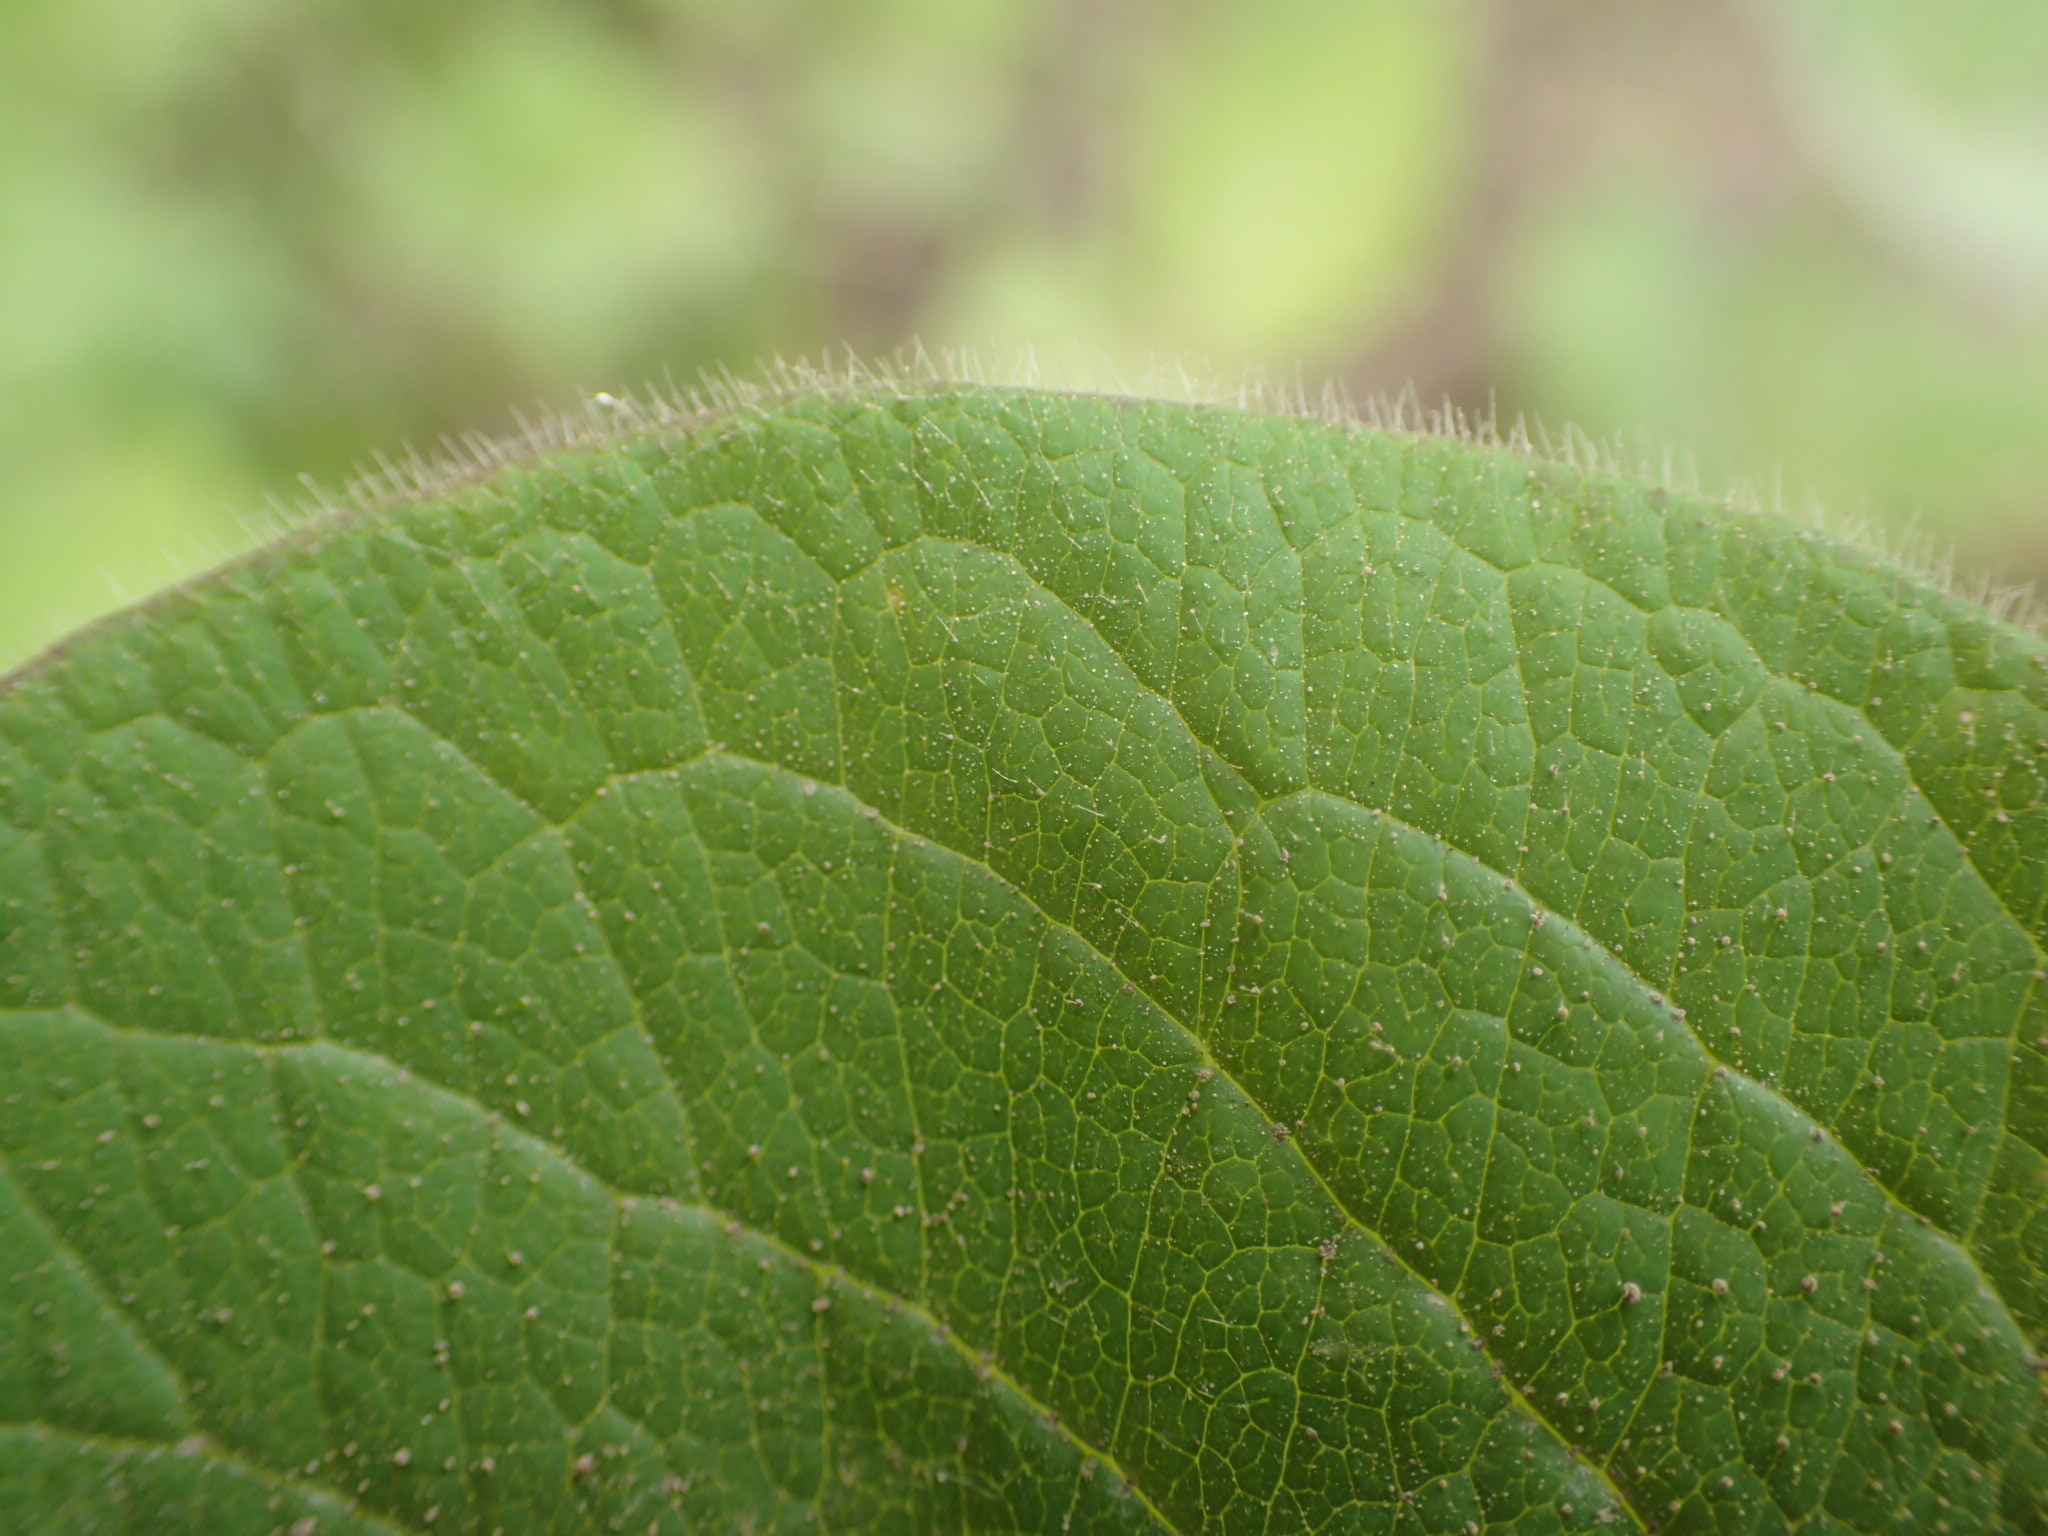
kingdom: Plantae
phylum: Tracheophyta
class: Magnoliopsida
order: Dipsacales
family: Caprifoliaceae
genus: Lonicera
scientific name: Lonicera hirsuta
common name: Hairy honeysuckle
